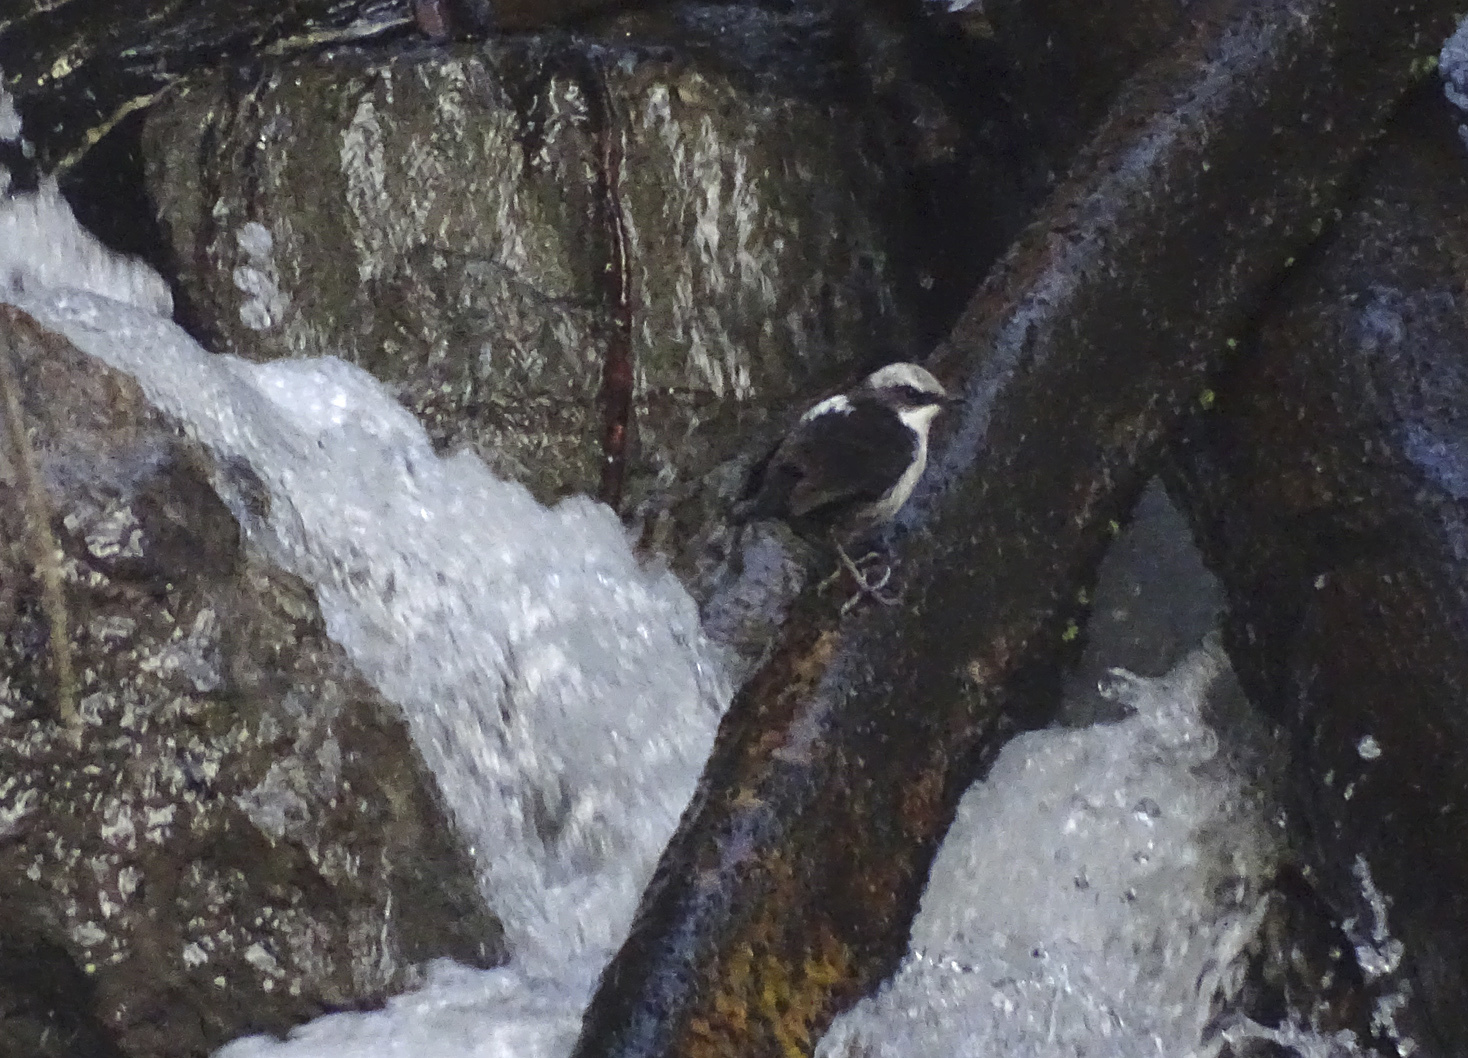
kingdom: Animalia
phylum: Chordata
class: Aves
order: Passeriformes
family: Cinclidae
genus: Cinclus
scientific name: Cinclus leucocephalus
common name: White-capped dipper
